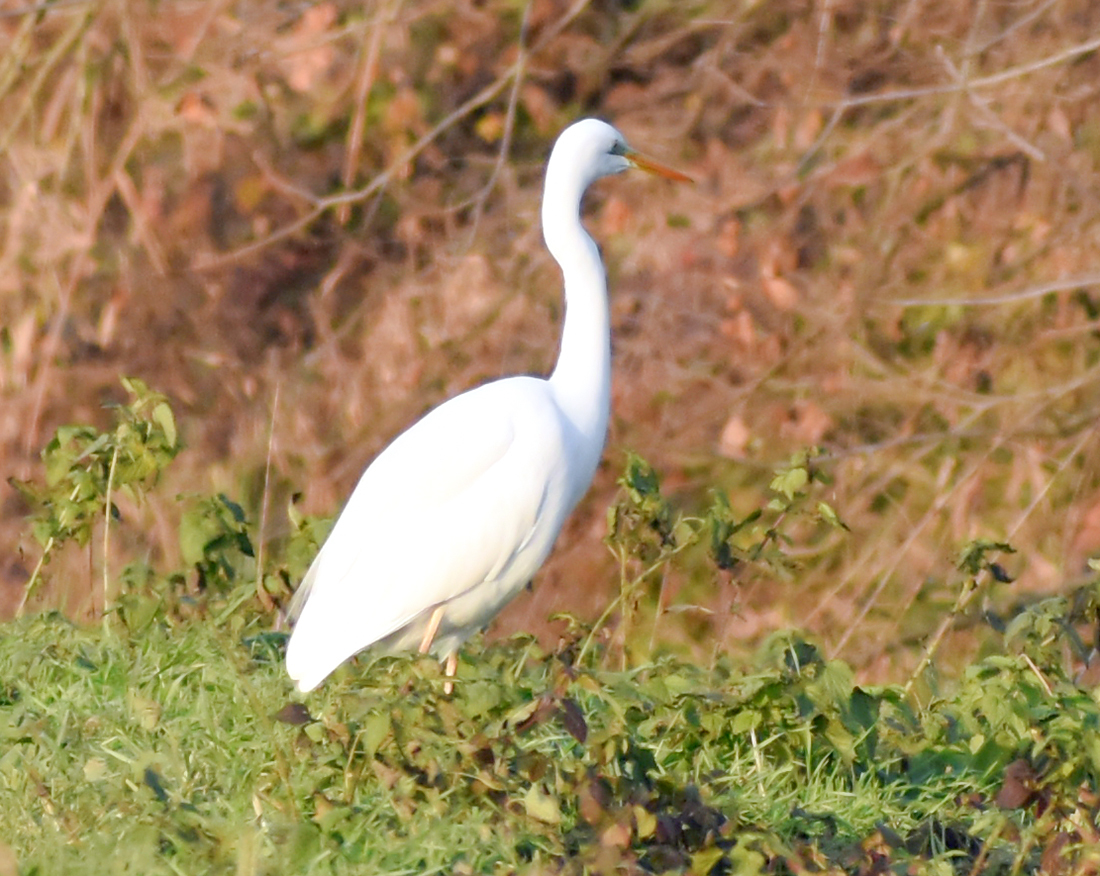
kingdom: Animalia
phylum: Chordata
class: Aves
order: Pelecaniformes
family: Ardeidae
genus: Ardea
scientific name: Ardea alba
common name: Great egret
